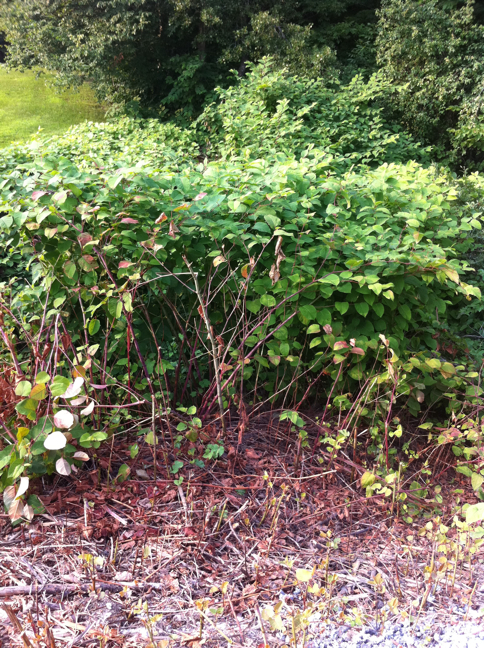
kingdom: Plantae
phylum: Tracheophyta
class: Magnoliopsida
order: Caryophyllales
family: Polygonaceae
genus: Reynoutria
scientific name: Reynoutria japonica
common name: Japanese knotweed
